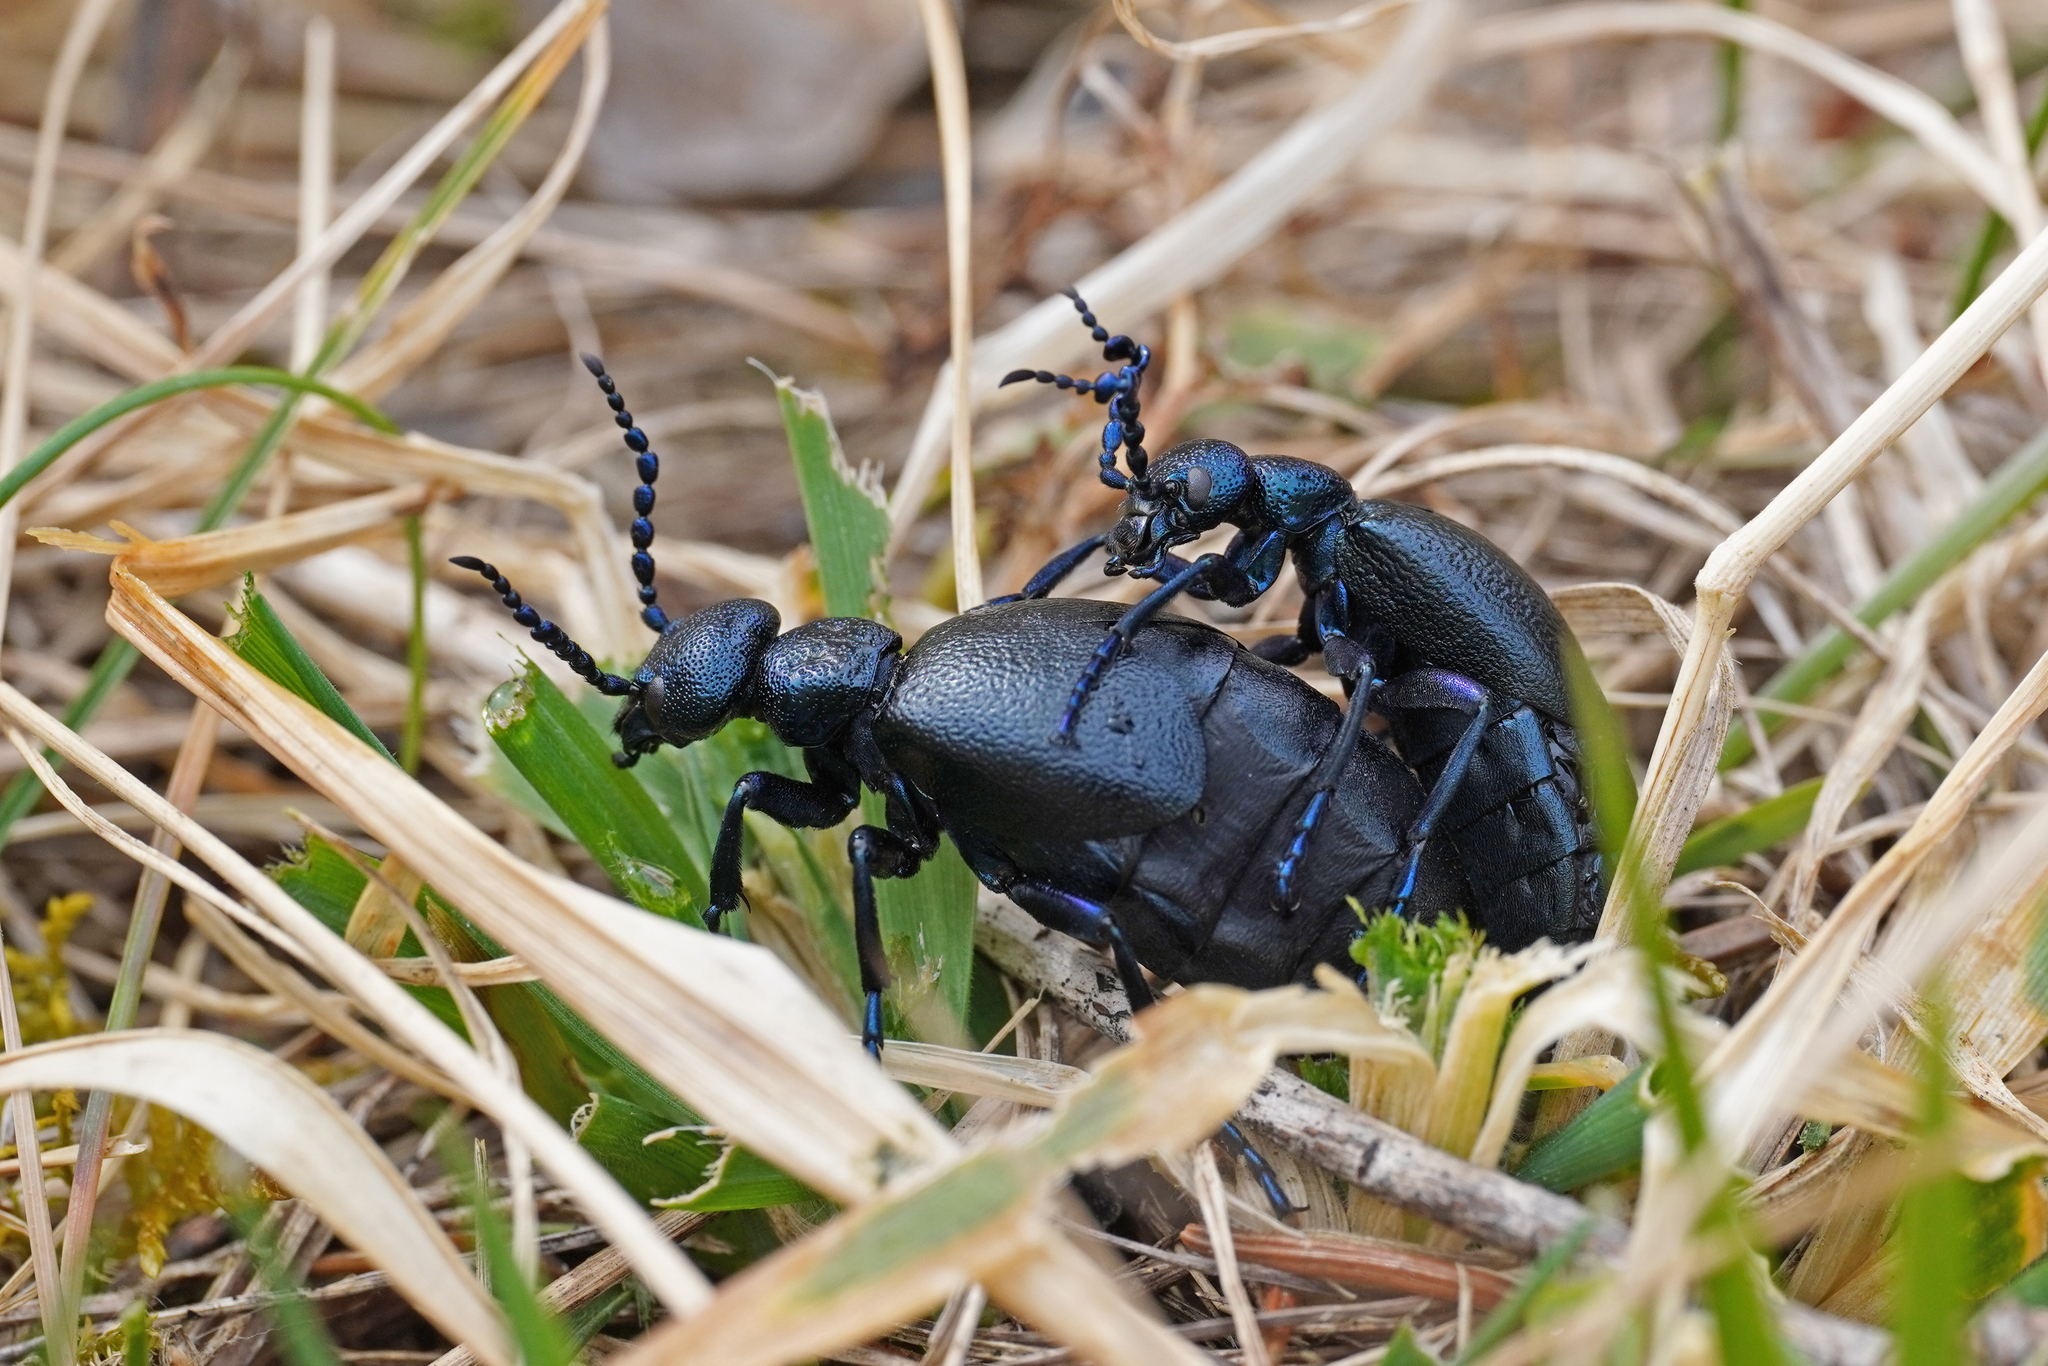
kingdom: Animalia
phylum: Arthropoda
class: Insecta
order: Coleoptera
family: Meloidae
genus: Meloe
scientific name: Meloe proscarabaeus
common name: Black oil-beetle
